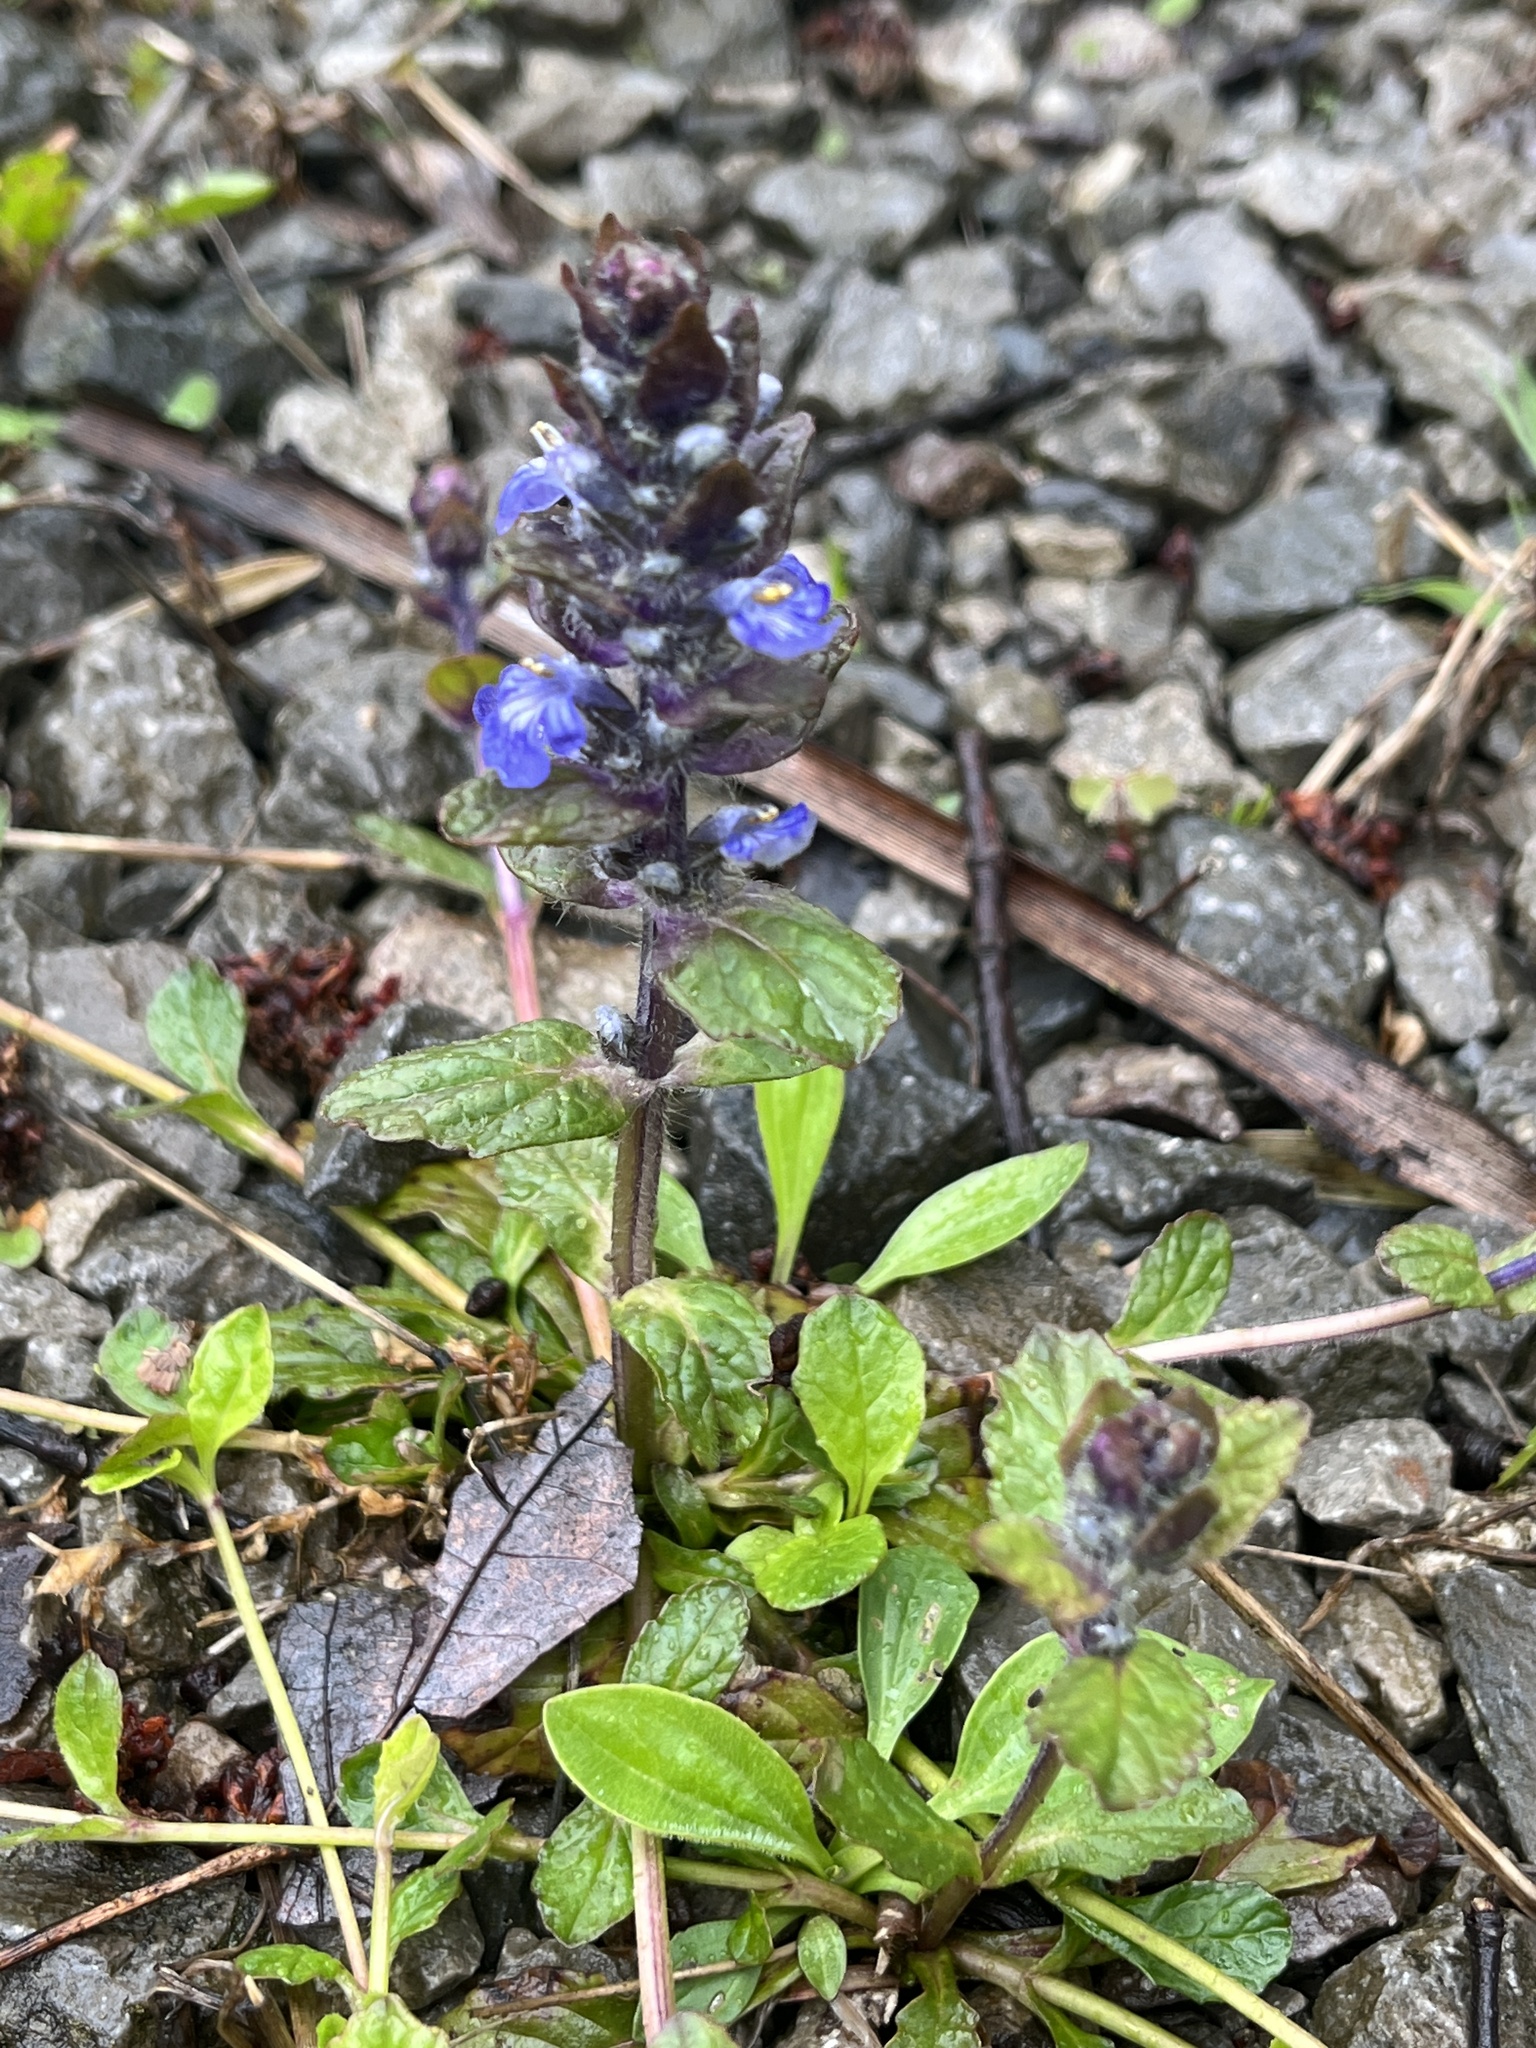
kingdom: Plantae
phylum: Tracheophyta
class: Magnoliopsida
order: Lamiales
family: Lamiaceae
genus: Ajuga
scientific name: Ajuga reptans
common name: Bugle
